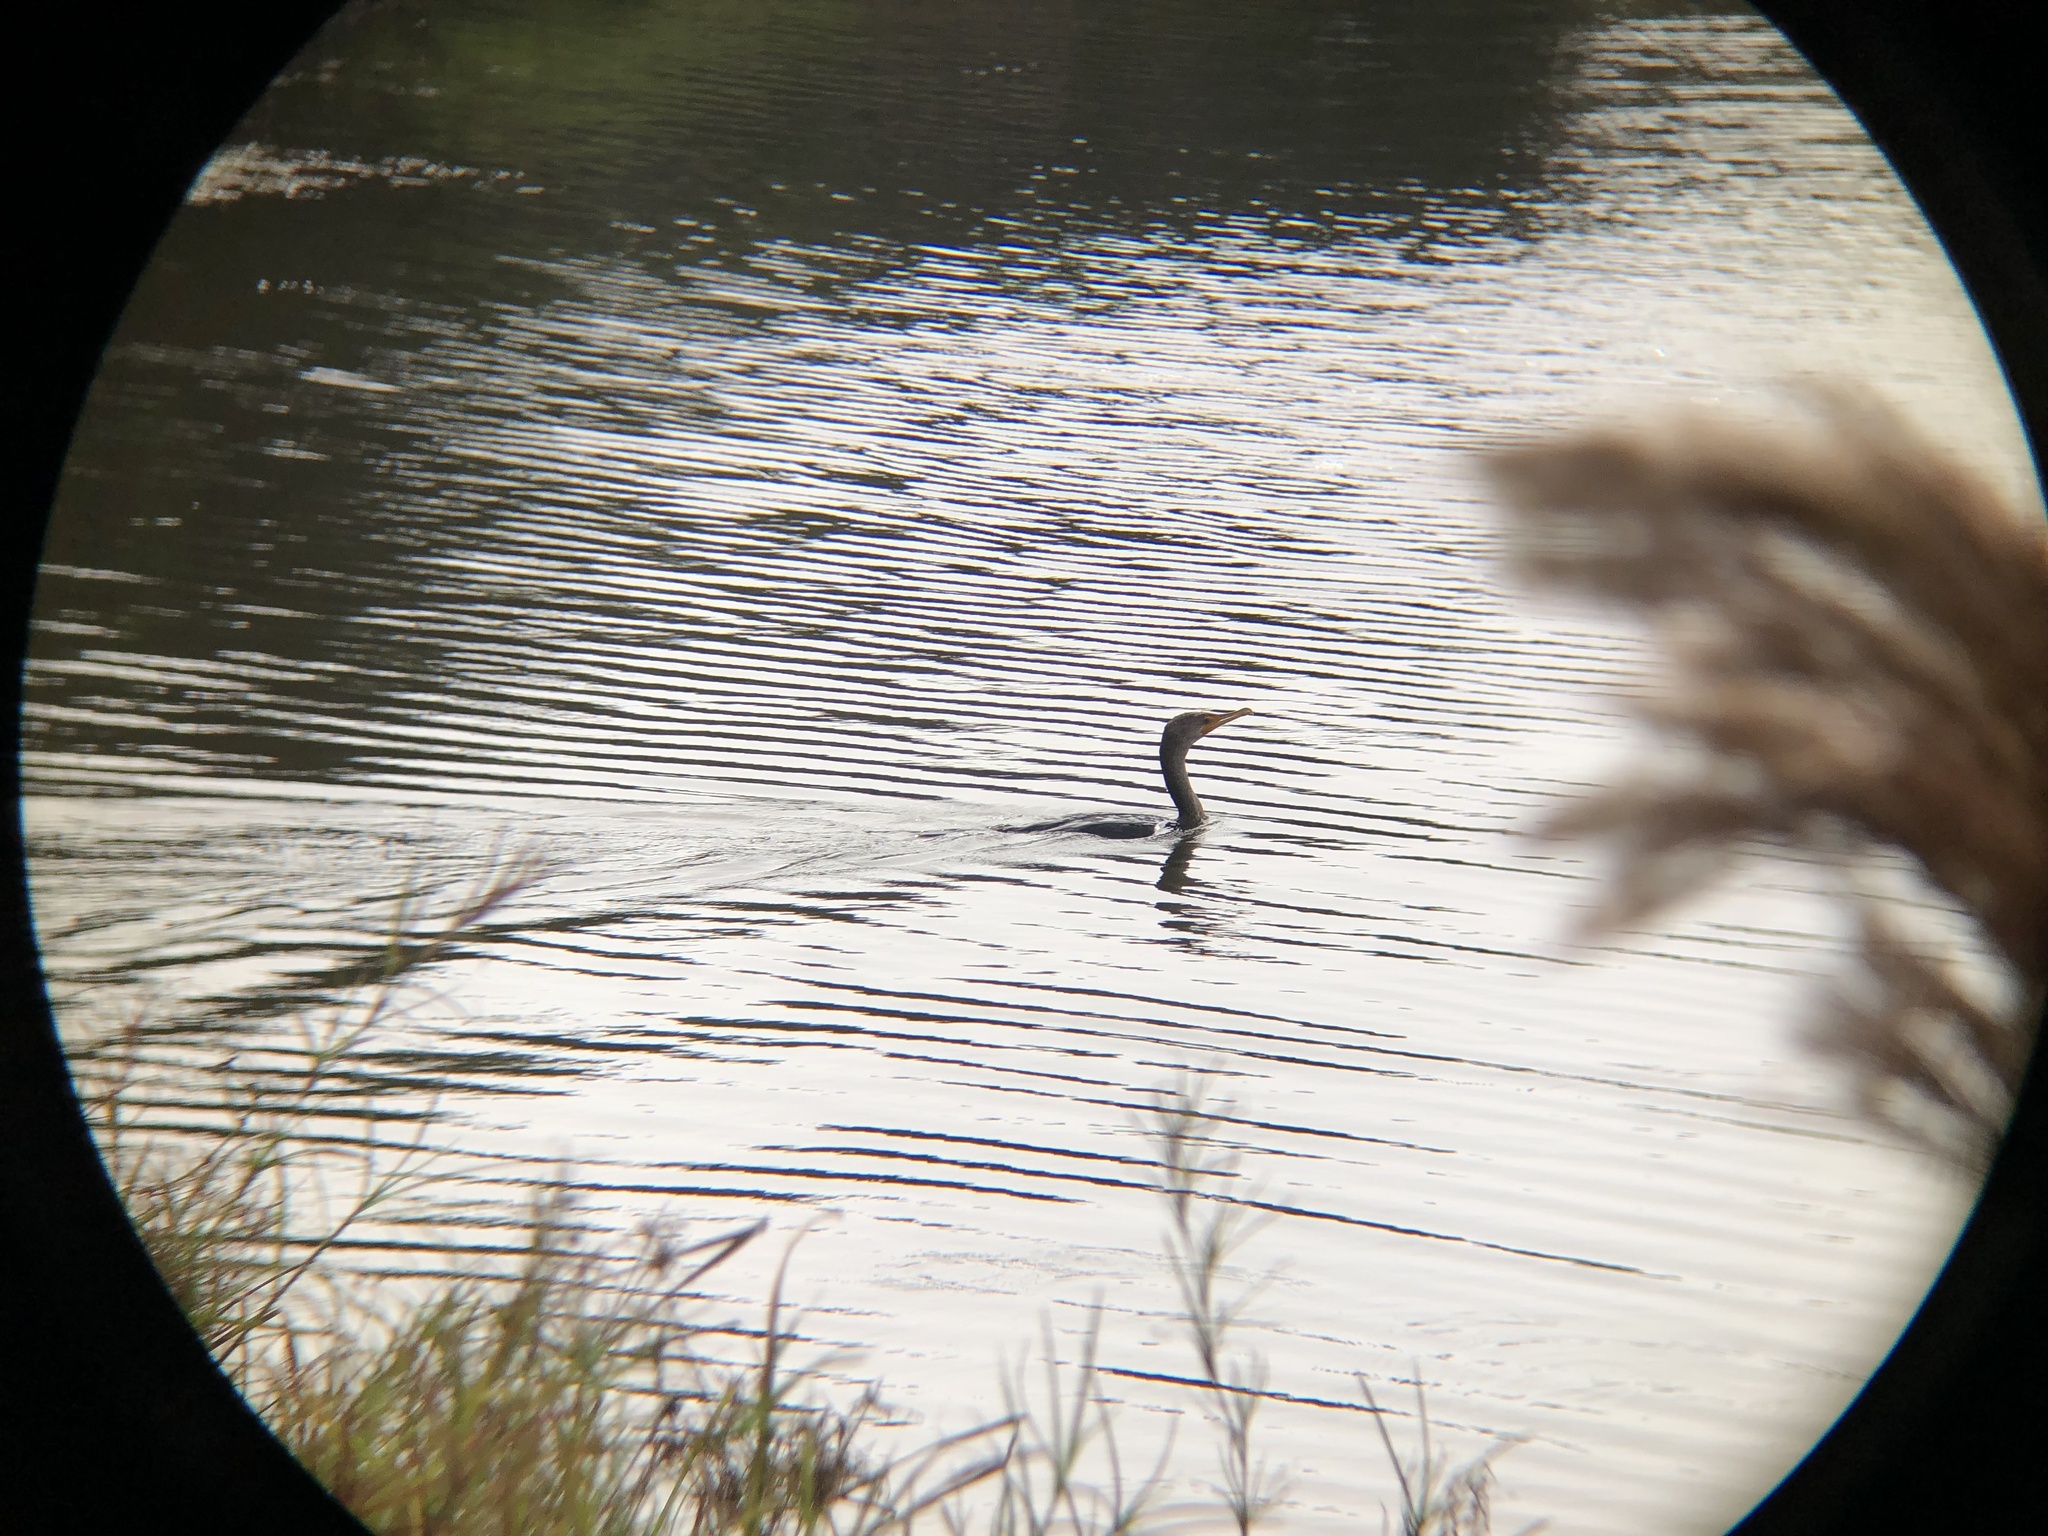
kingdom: Animalia
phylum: Chordata
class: Aves
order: Suliformes
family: Phalacrocoracidae
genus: Phalacrocorax
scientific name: Phalacrocorax auritus
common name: Double-crested cormorant
